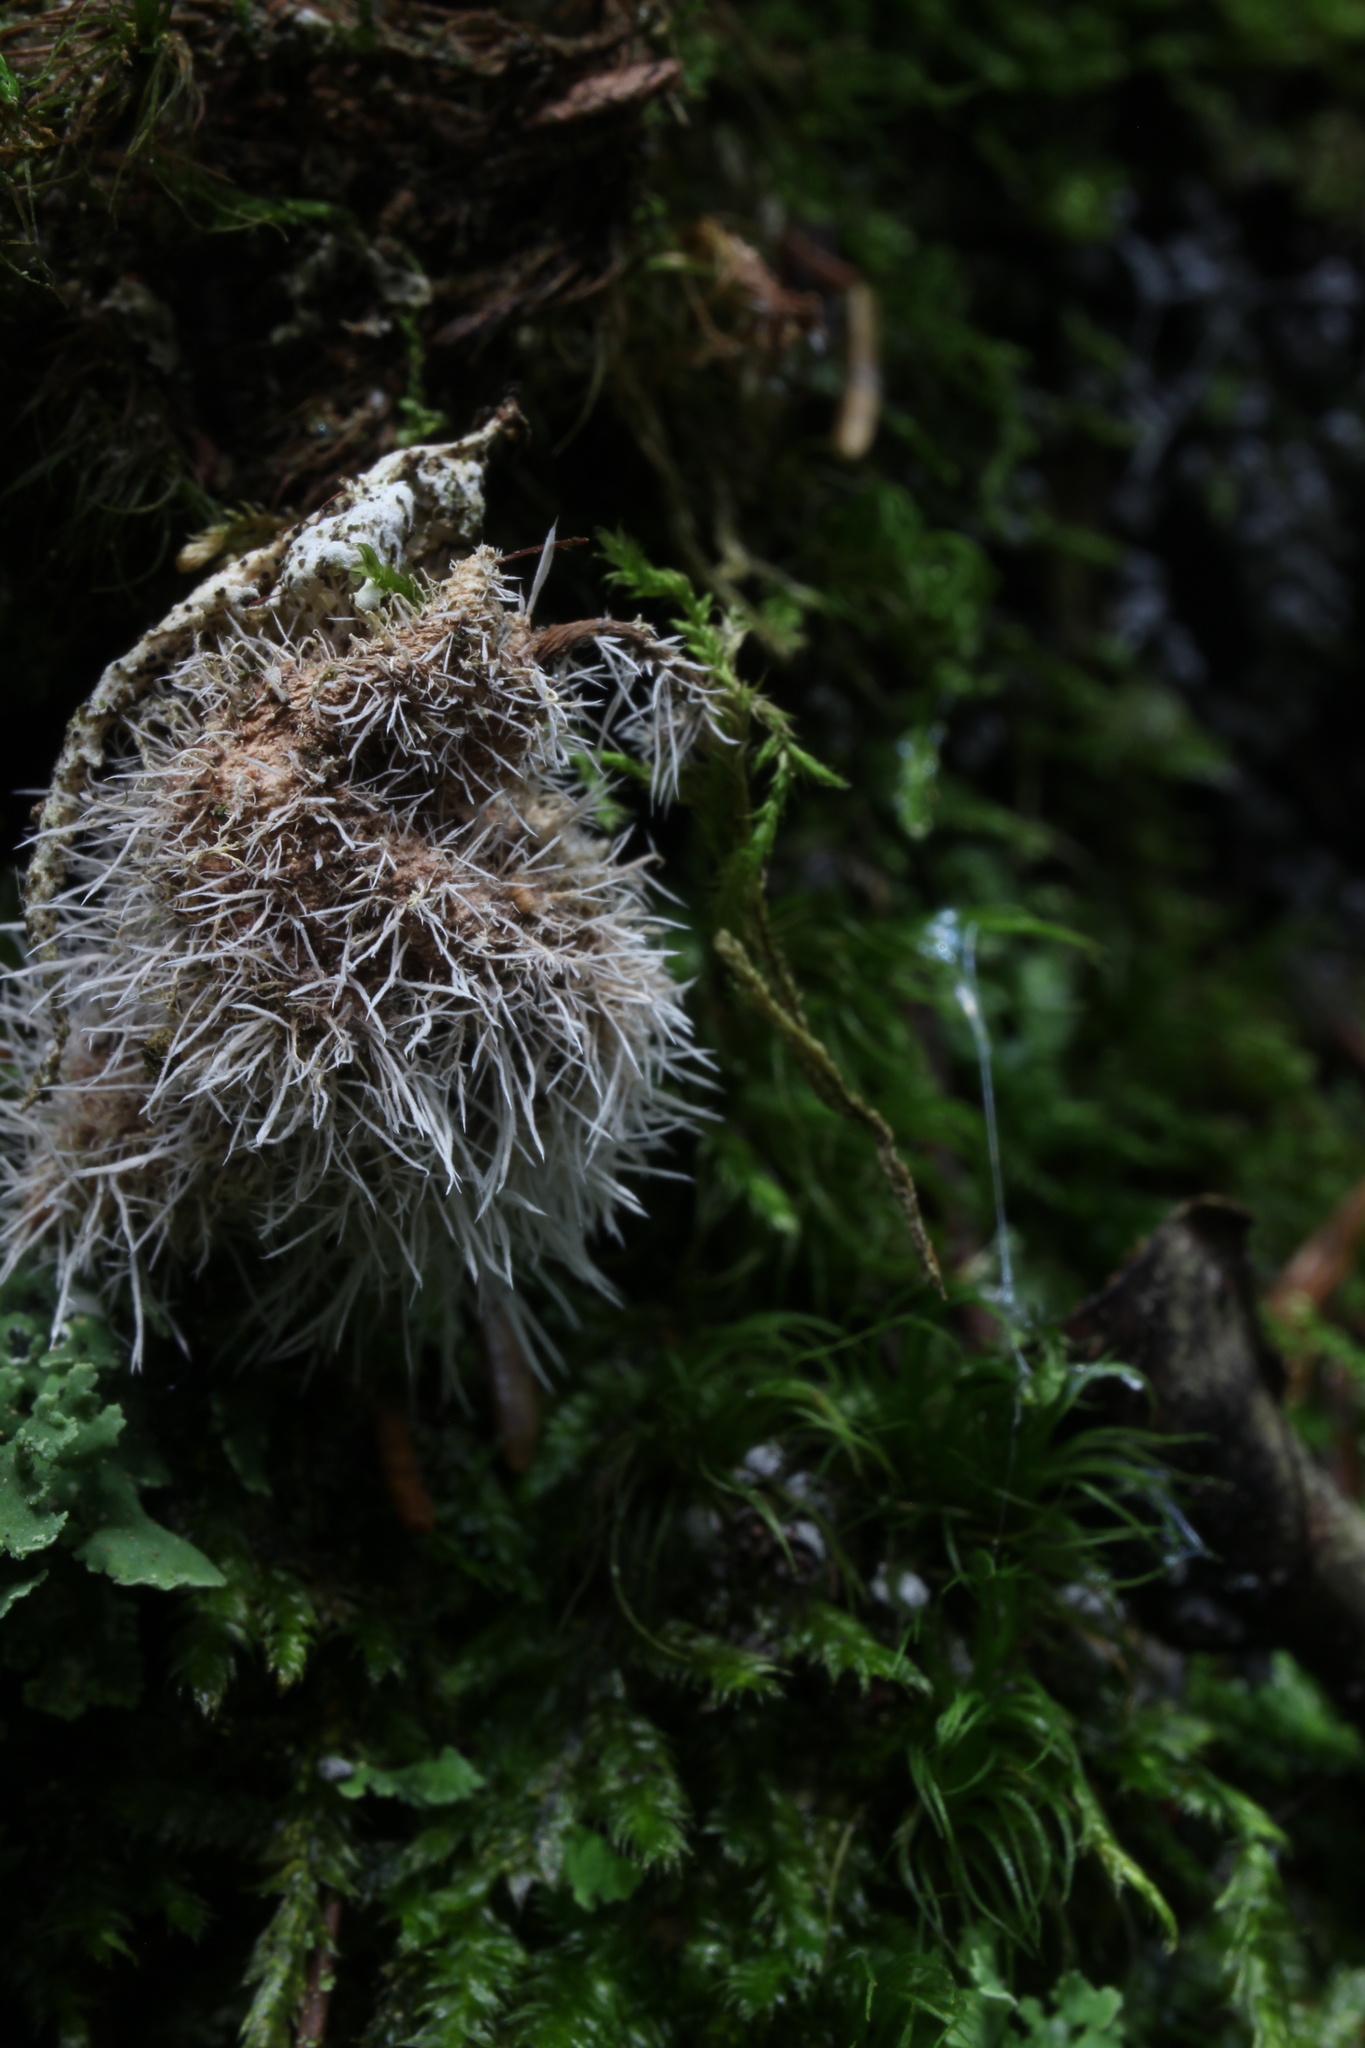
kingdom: Fungi
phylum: Ascomycota
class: Sordariomycetes
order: Hypocreales
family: Tilachlidiaceae
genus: Tilachlidium
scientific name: Tilachlidium brachiatum
